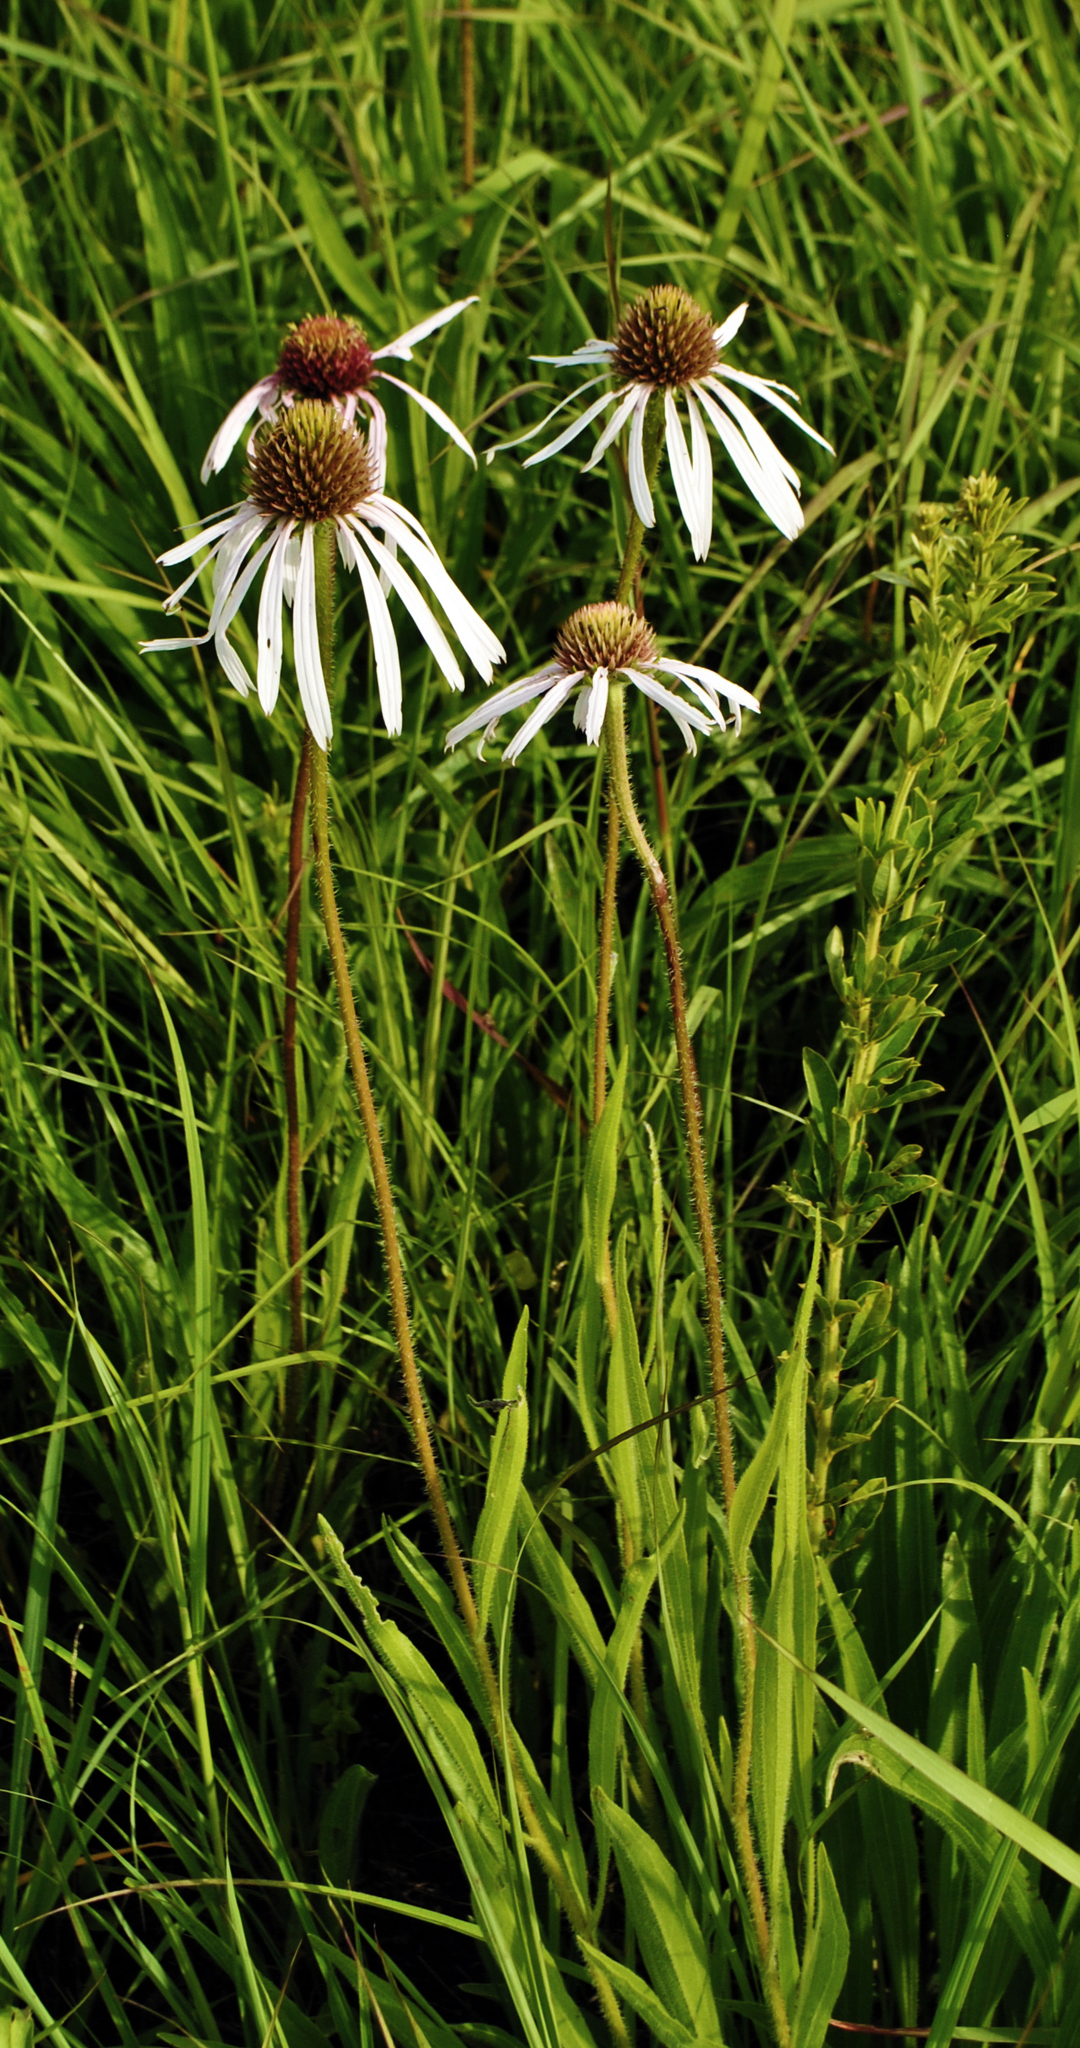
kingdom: Plantae
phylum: Tracheophyta
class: Magnoliopsida
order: Asterales
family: Asteraceae
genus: Echinacea
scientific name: Echinacea pallida
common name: Pale echinacea
